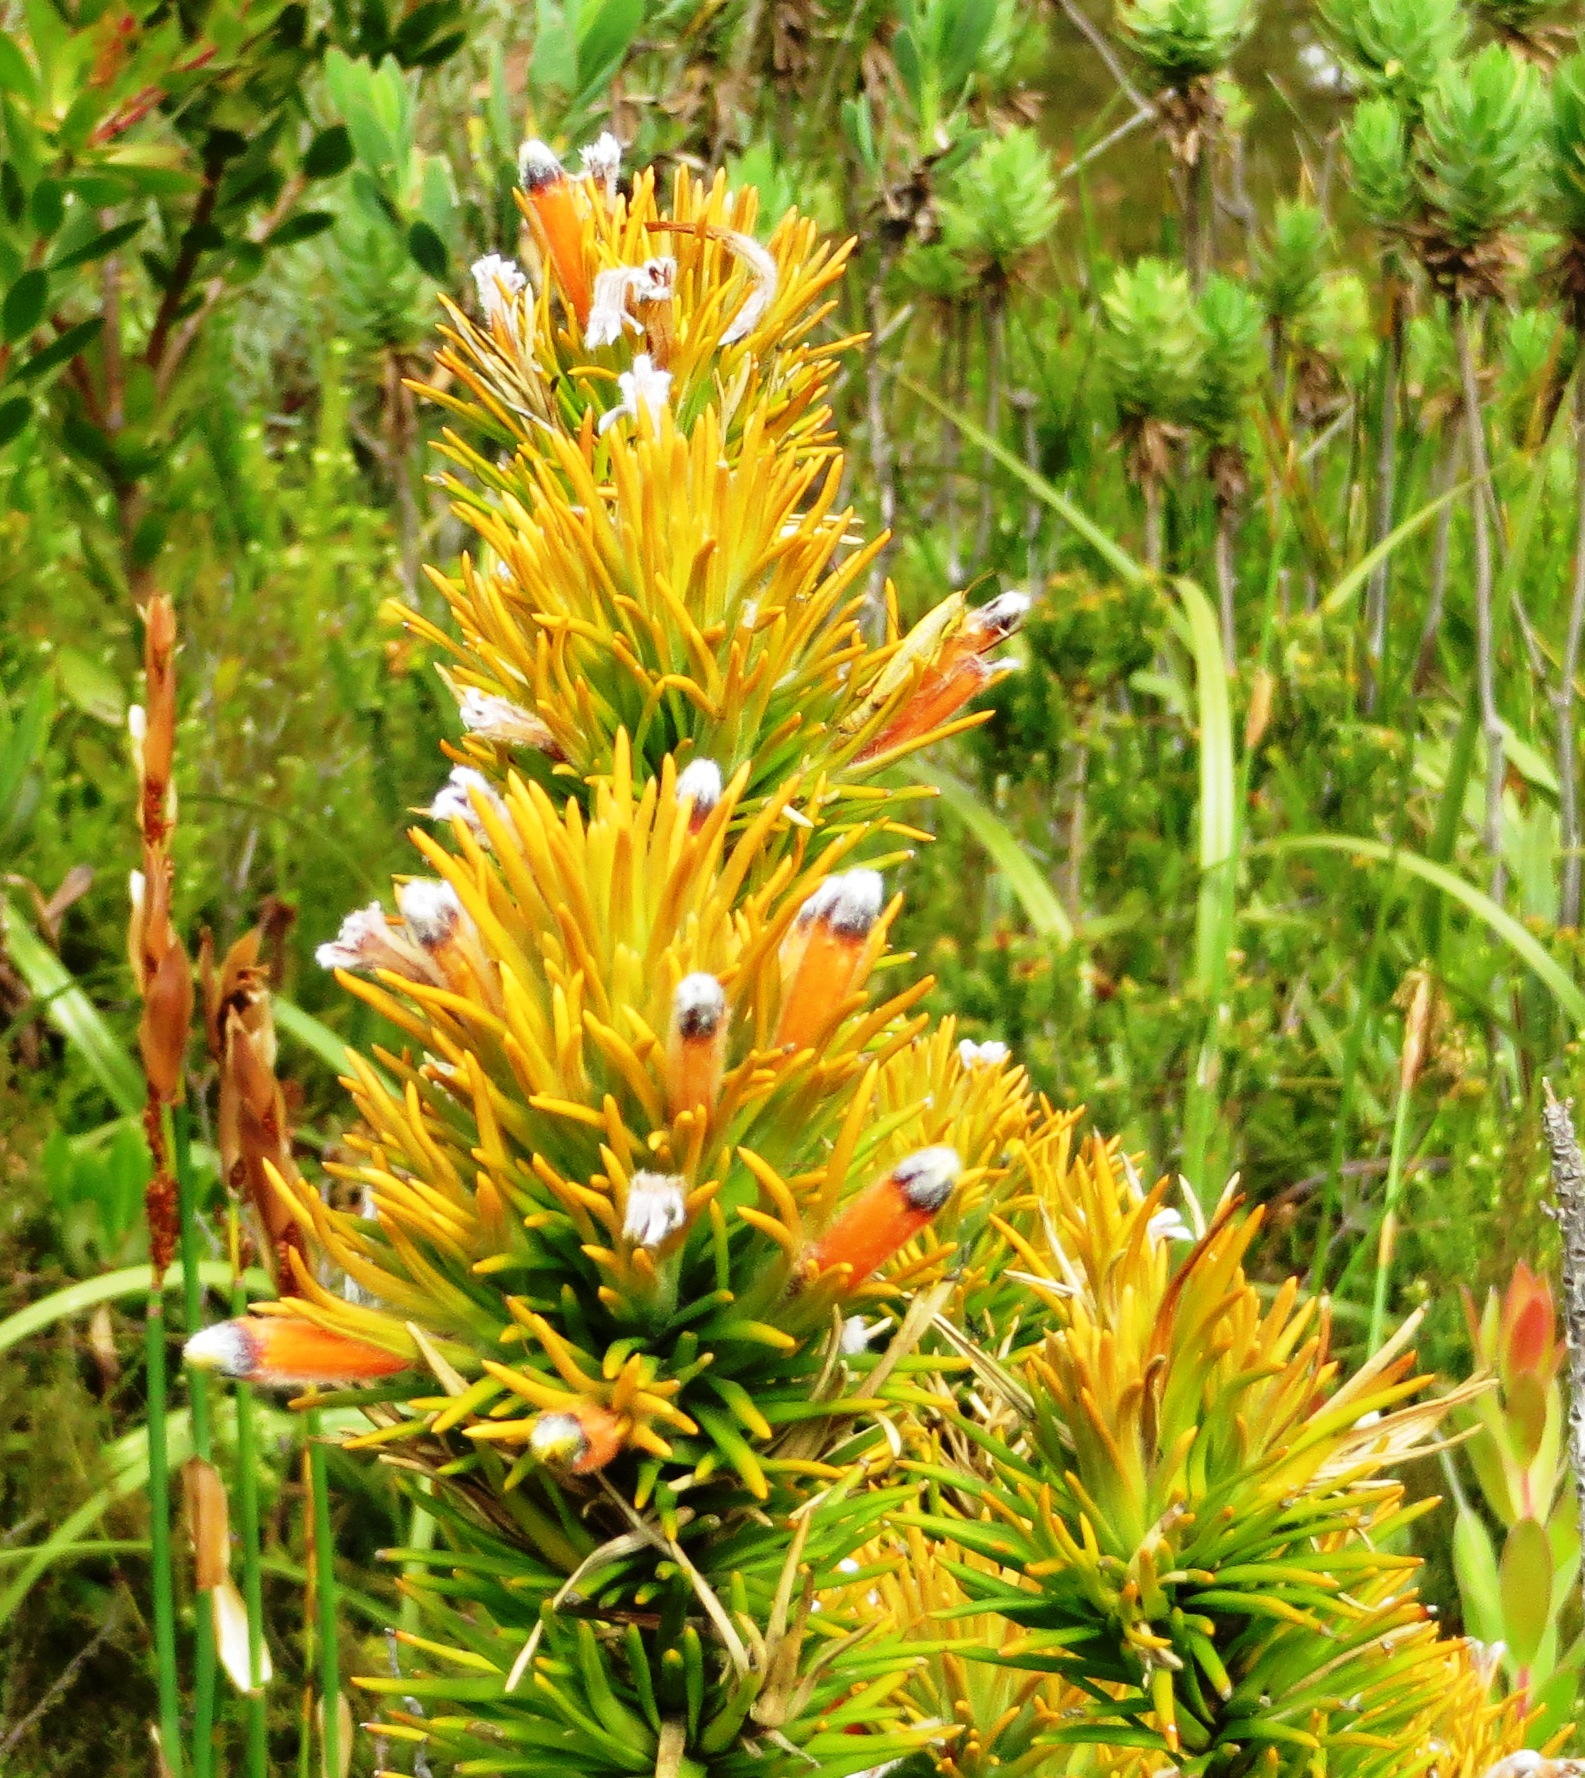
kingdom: Plantae
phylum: Tracheophyta
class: Magnoliopsida
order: Lamiales
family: Stilbaceae
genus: Retzia
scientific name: Retzia capensis
